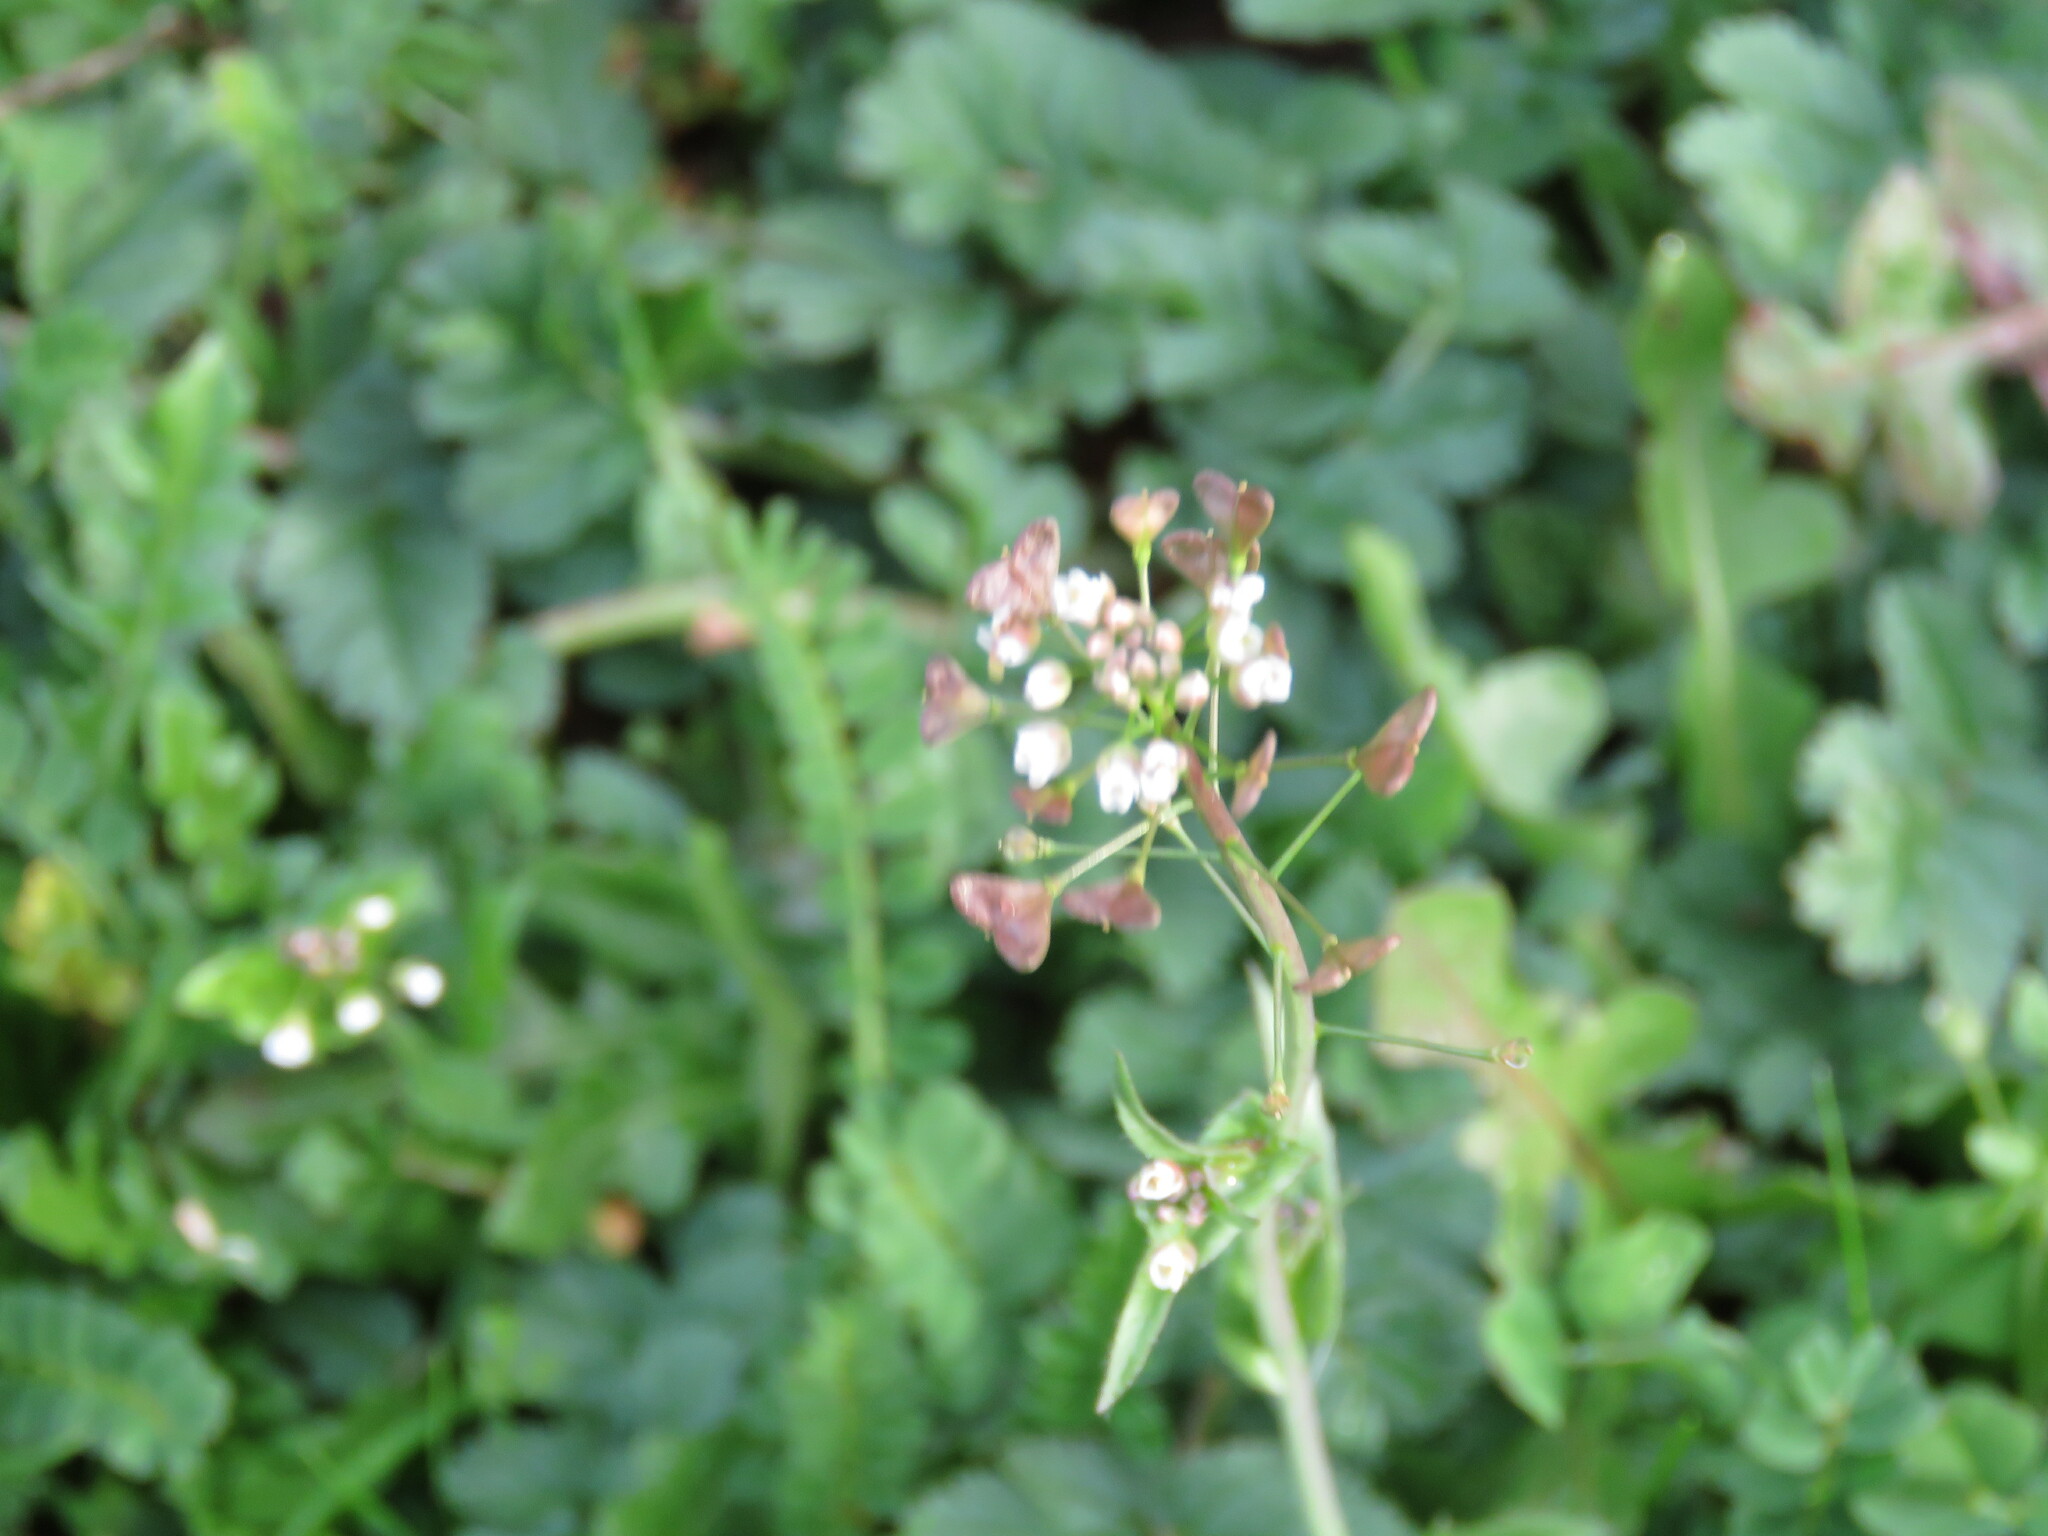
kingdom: Plantae
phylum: Tracheophyta
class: Magnoliopsida
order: Brassicales
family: Brassicaceae
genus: Capsella
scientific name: Capsella bursa-pastoris
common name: Shepherd's purse
